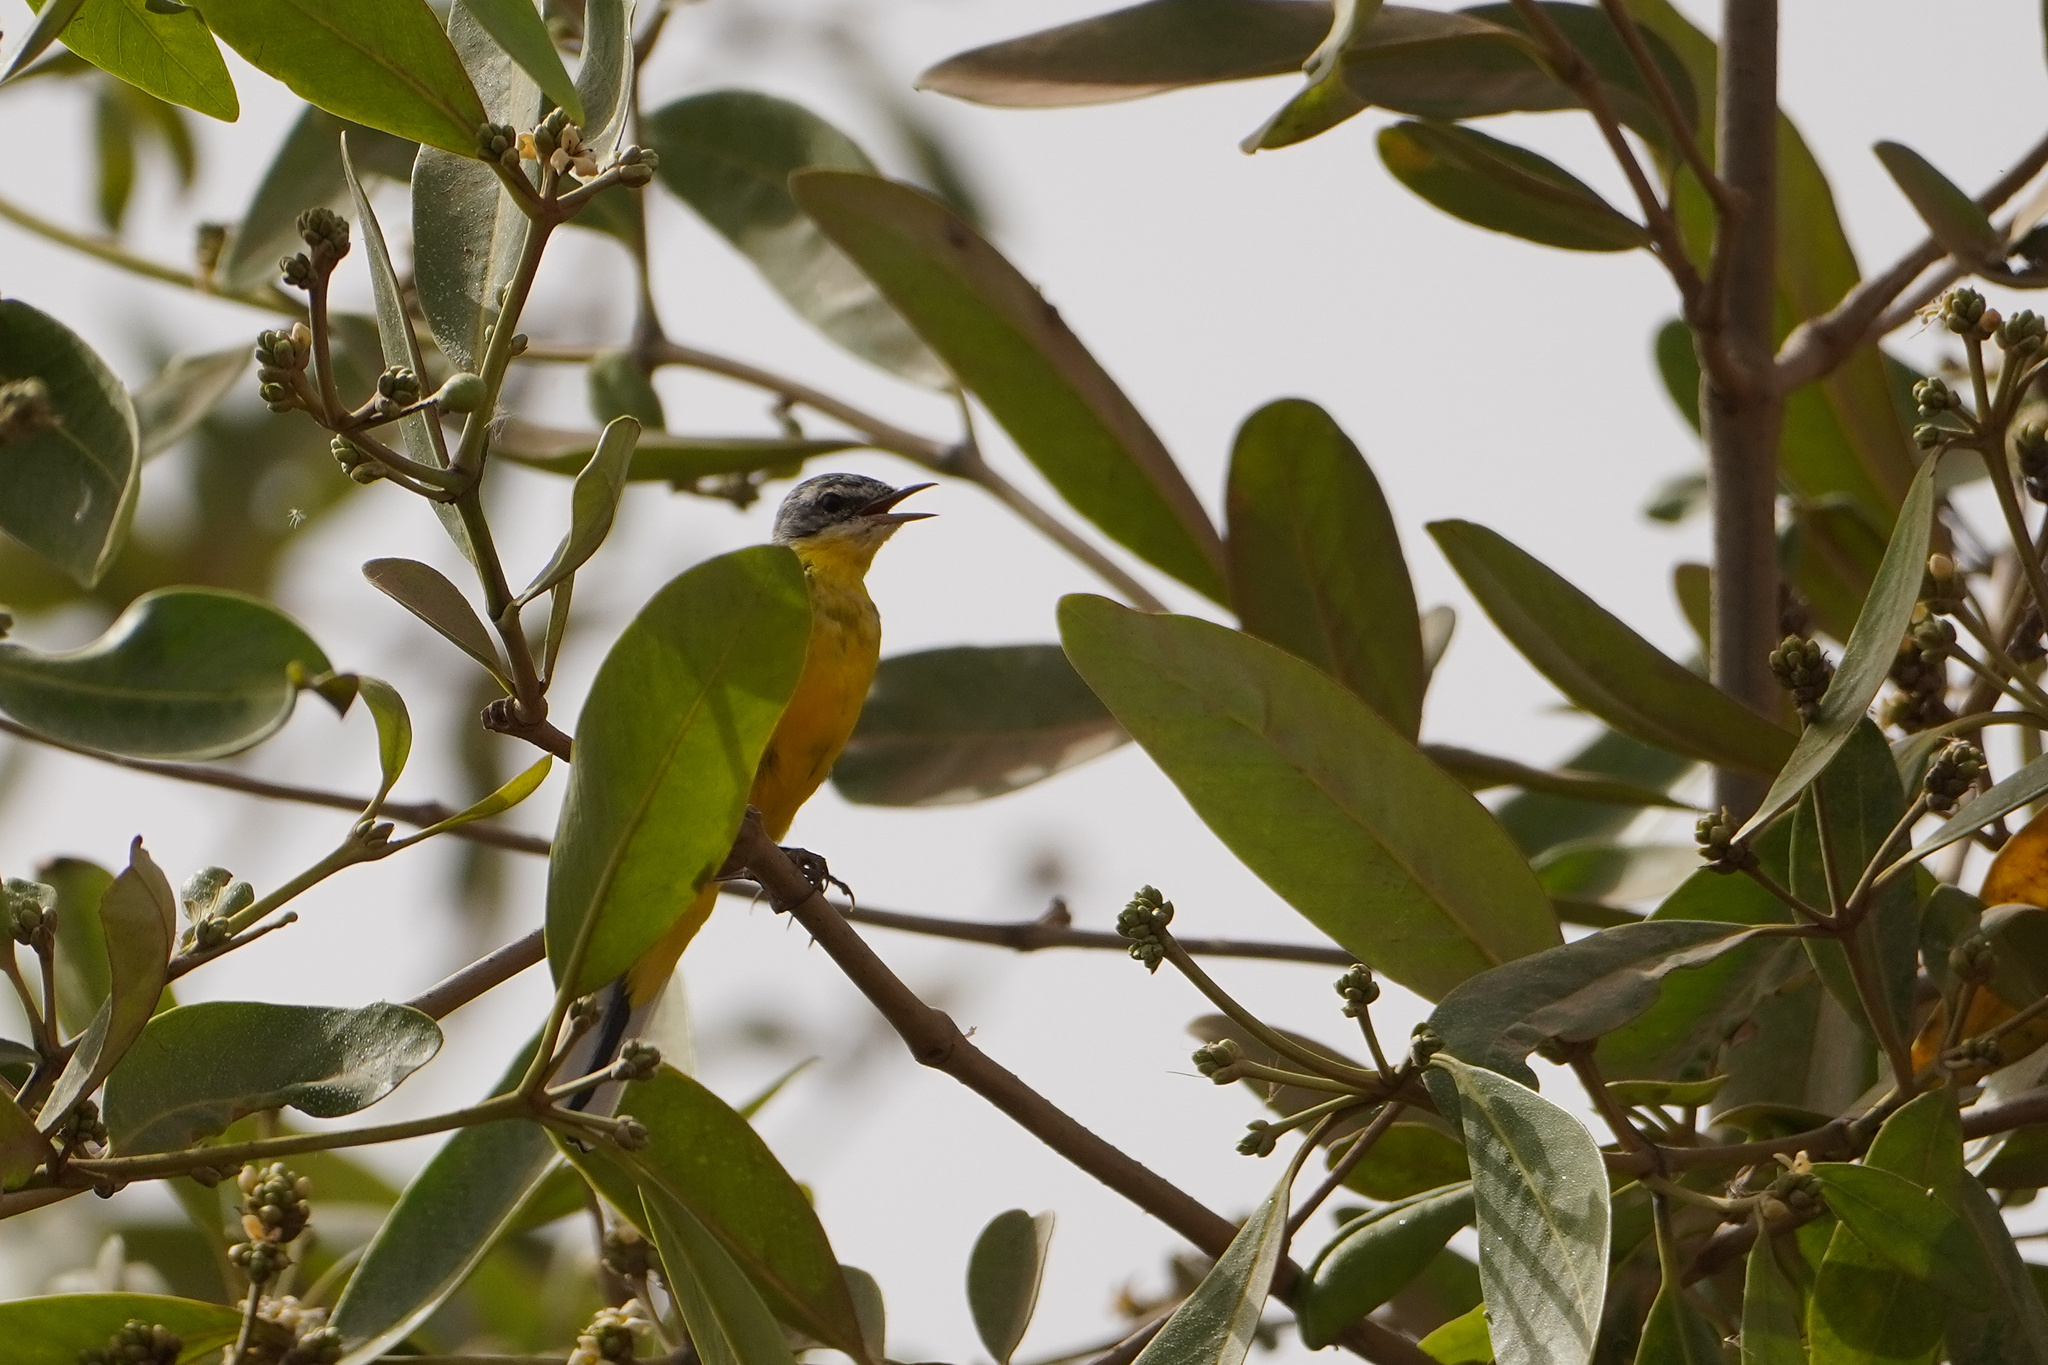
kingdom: Animalia
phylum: Chordata
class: Aves
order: Passeriformes
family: Motacillidae
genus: Motacilla
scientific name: Motacilla flava
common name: Western yellow wagtail
